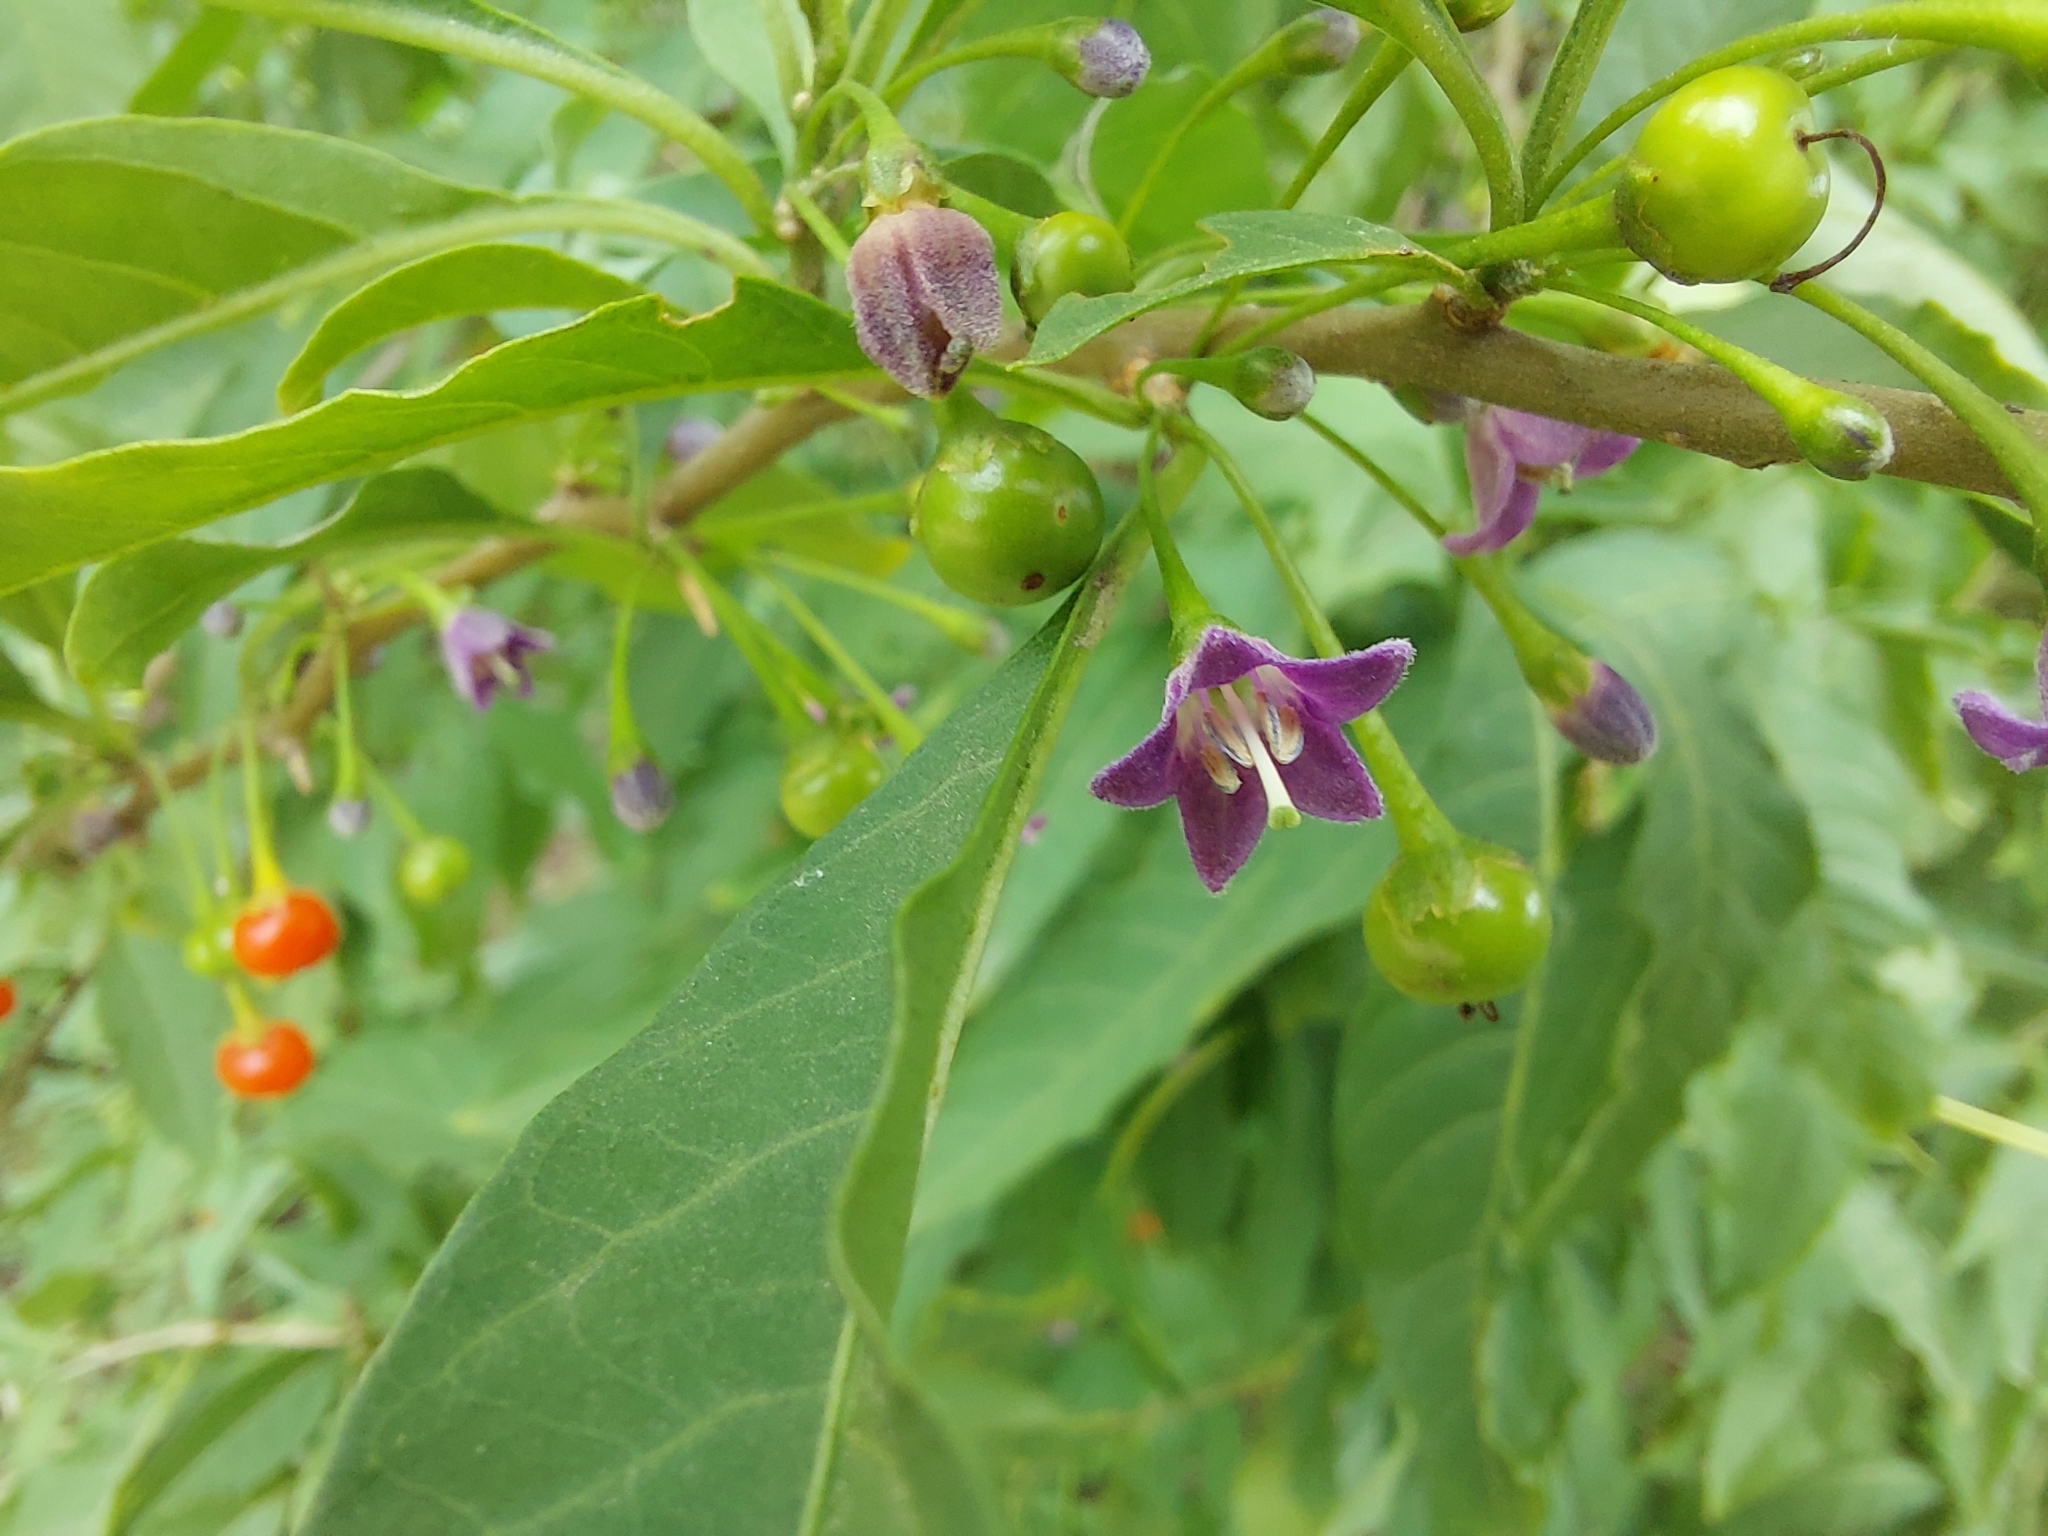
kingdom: Plantae
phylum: Tracheophyta
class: Magnoliopsida
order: Solanales
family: Solanaceae
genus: Vassobia
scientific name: Vassobia breviflora
